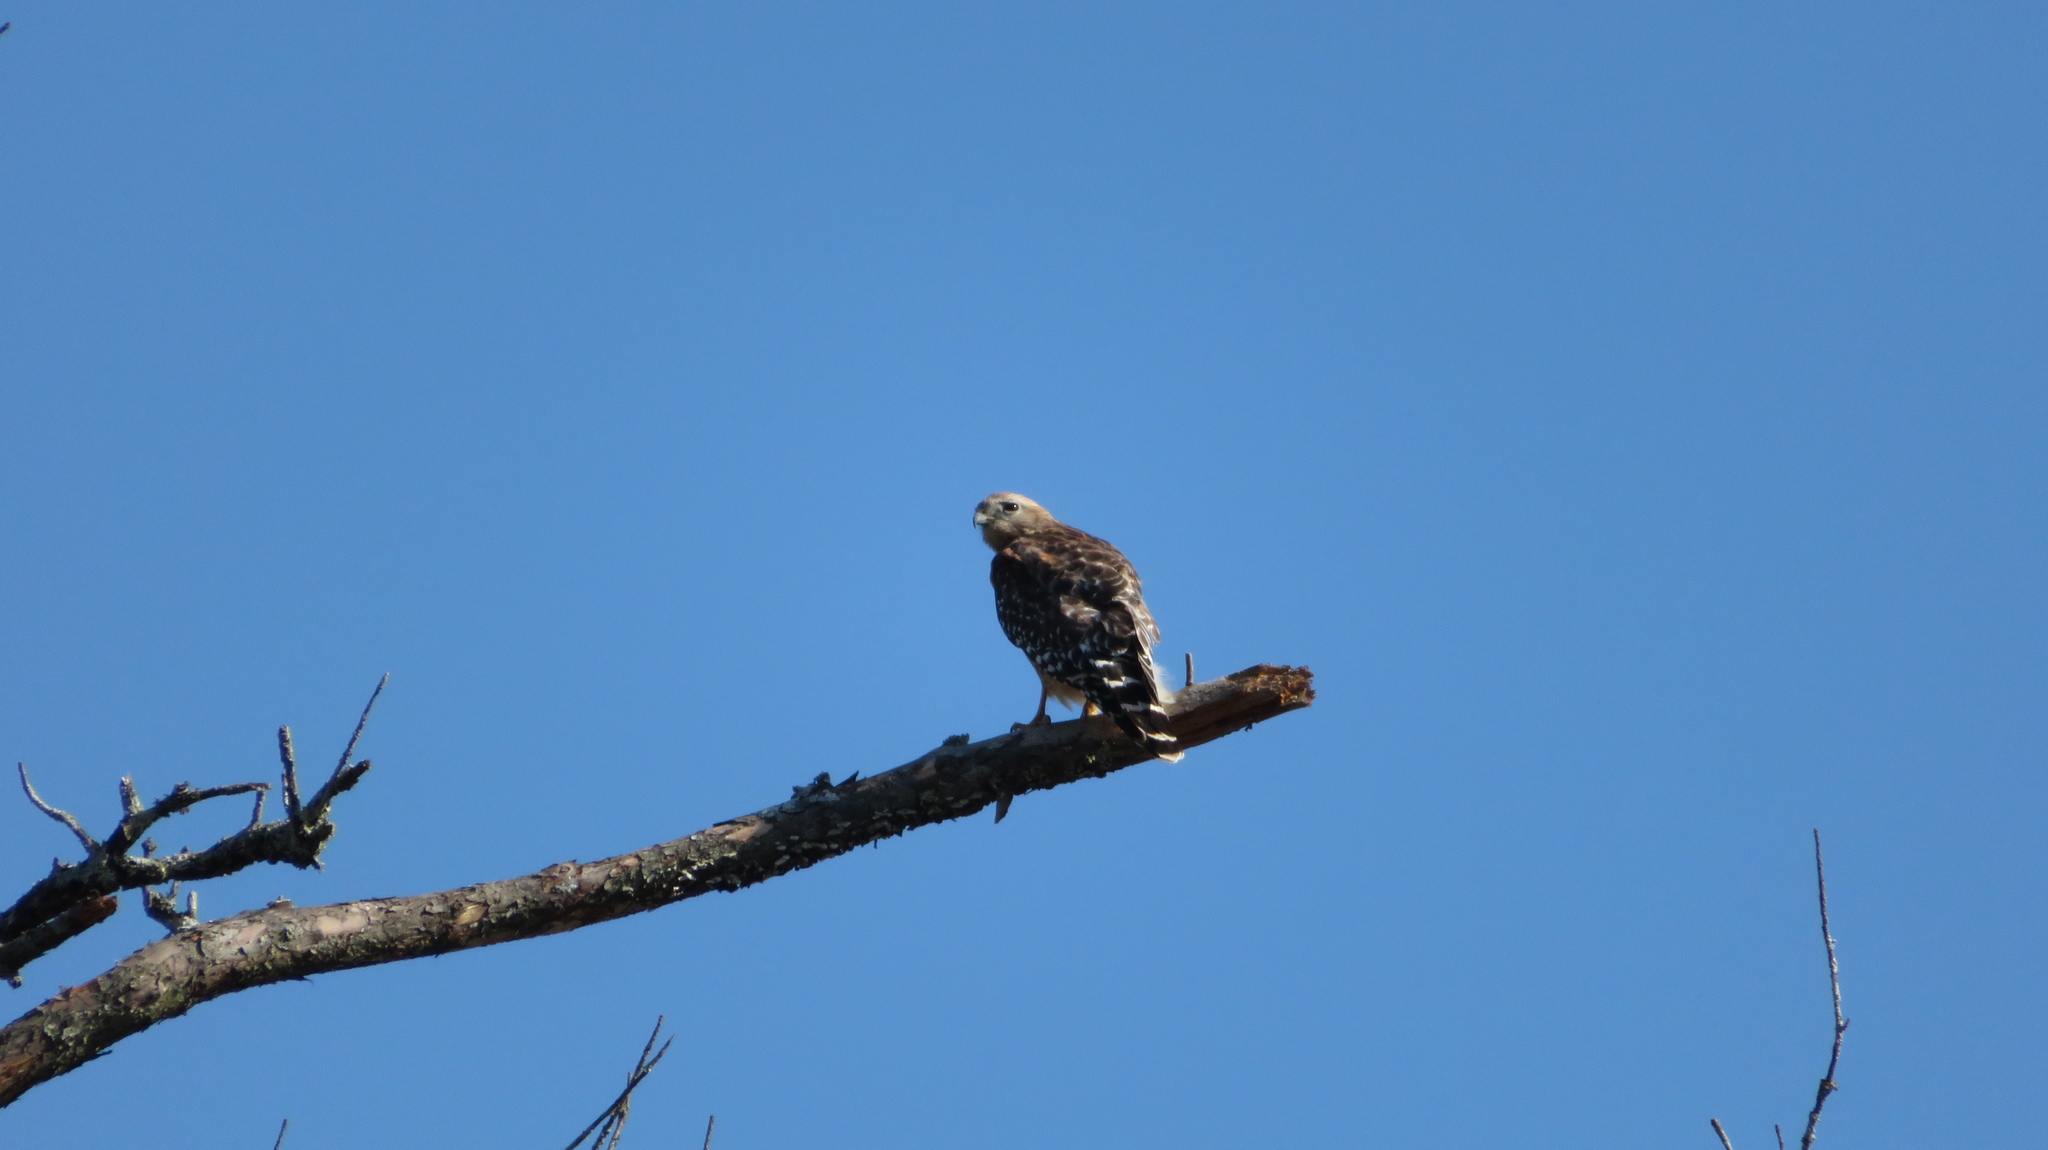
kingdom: Animalia
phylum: Chordata
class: Aves
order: Accipitriformes
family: Accipitridae
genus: Buteo
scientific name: Buteo lineatus
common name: Red-shouldered hawk
